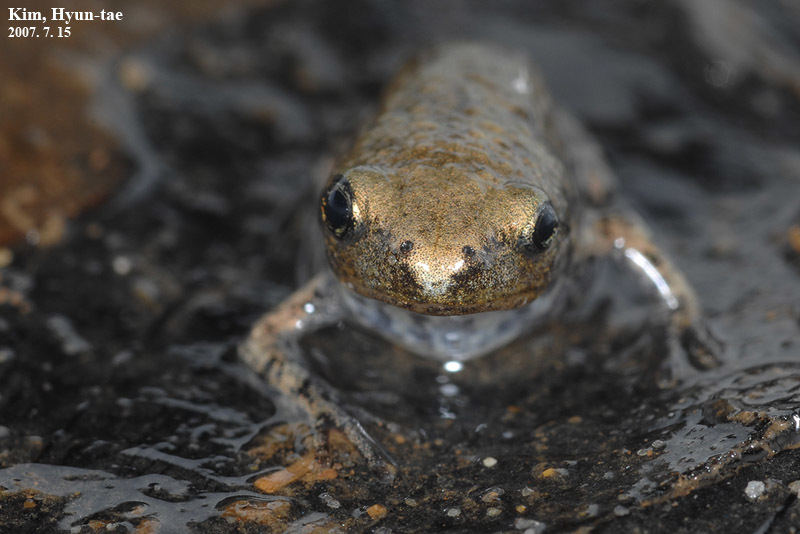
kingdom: Animalia
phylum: Chordata
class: Amphibia
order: Anura
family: Microhylidae
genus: Kaloula
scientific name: Kaloula borealis
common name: Boreal digging frog
